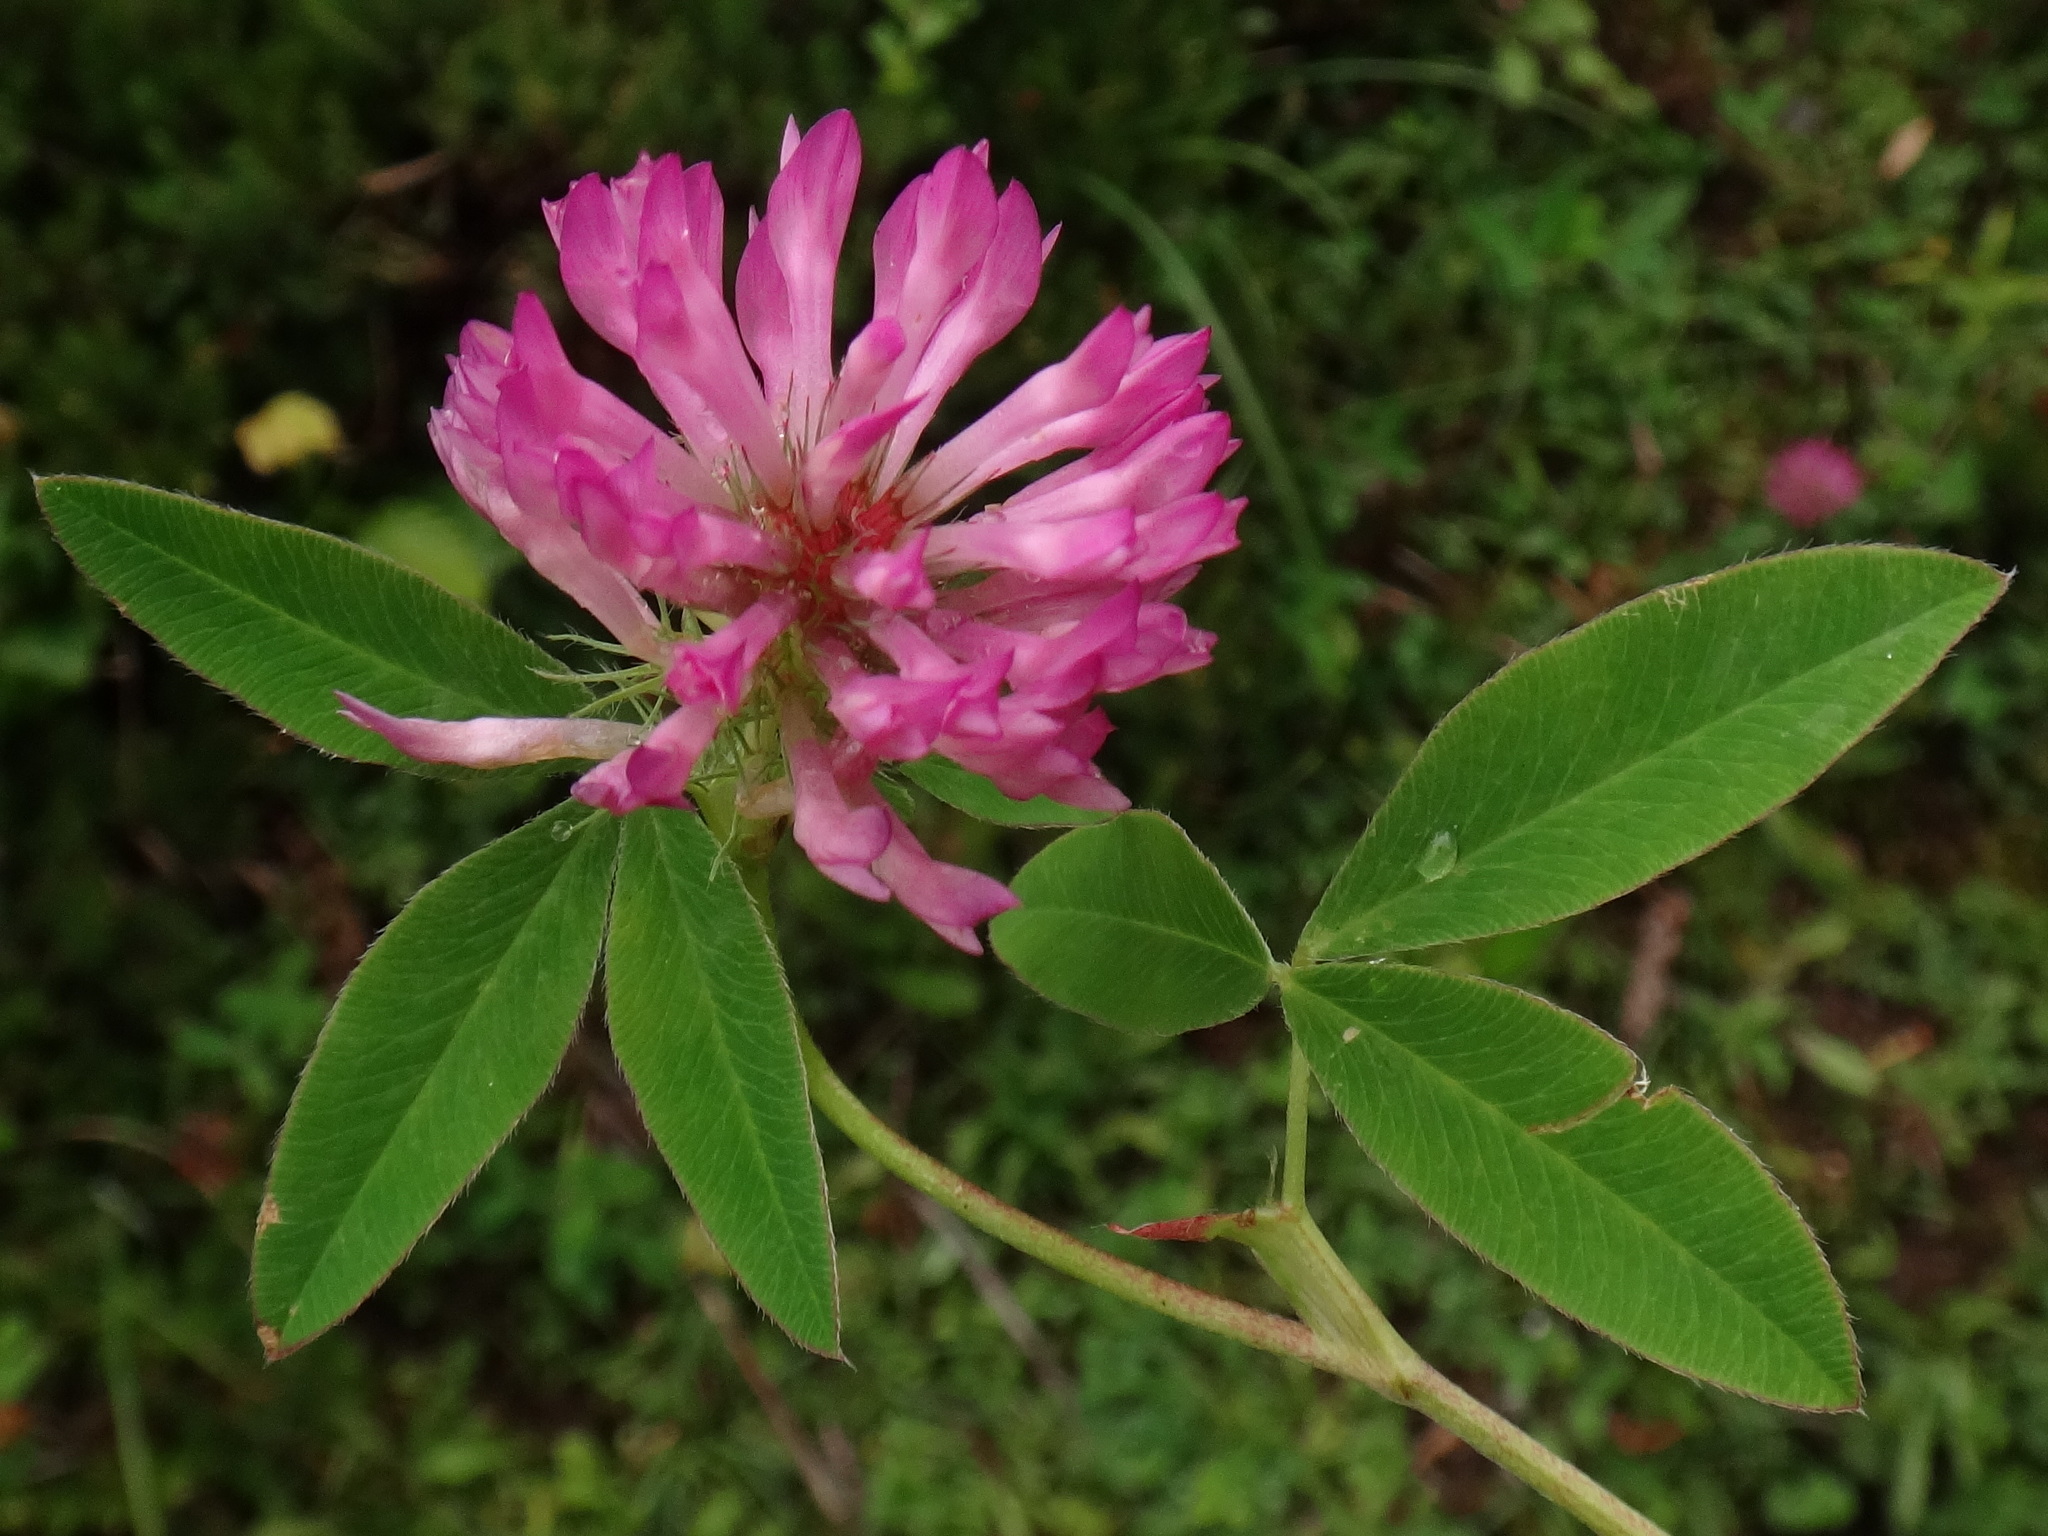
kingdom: Plantae
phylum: Tracheophyta
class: Magnoliopsida
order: Fabales
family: Fabaceae
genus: Trifolium
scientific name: Trifolium medium
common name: Zigzag clover
